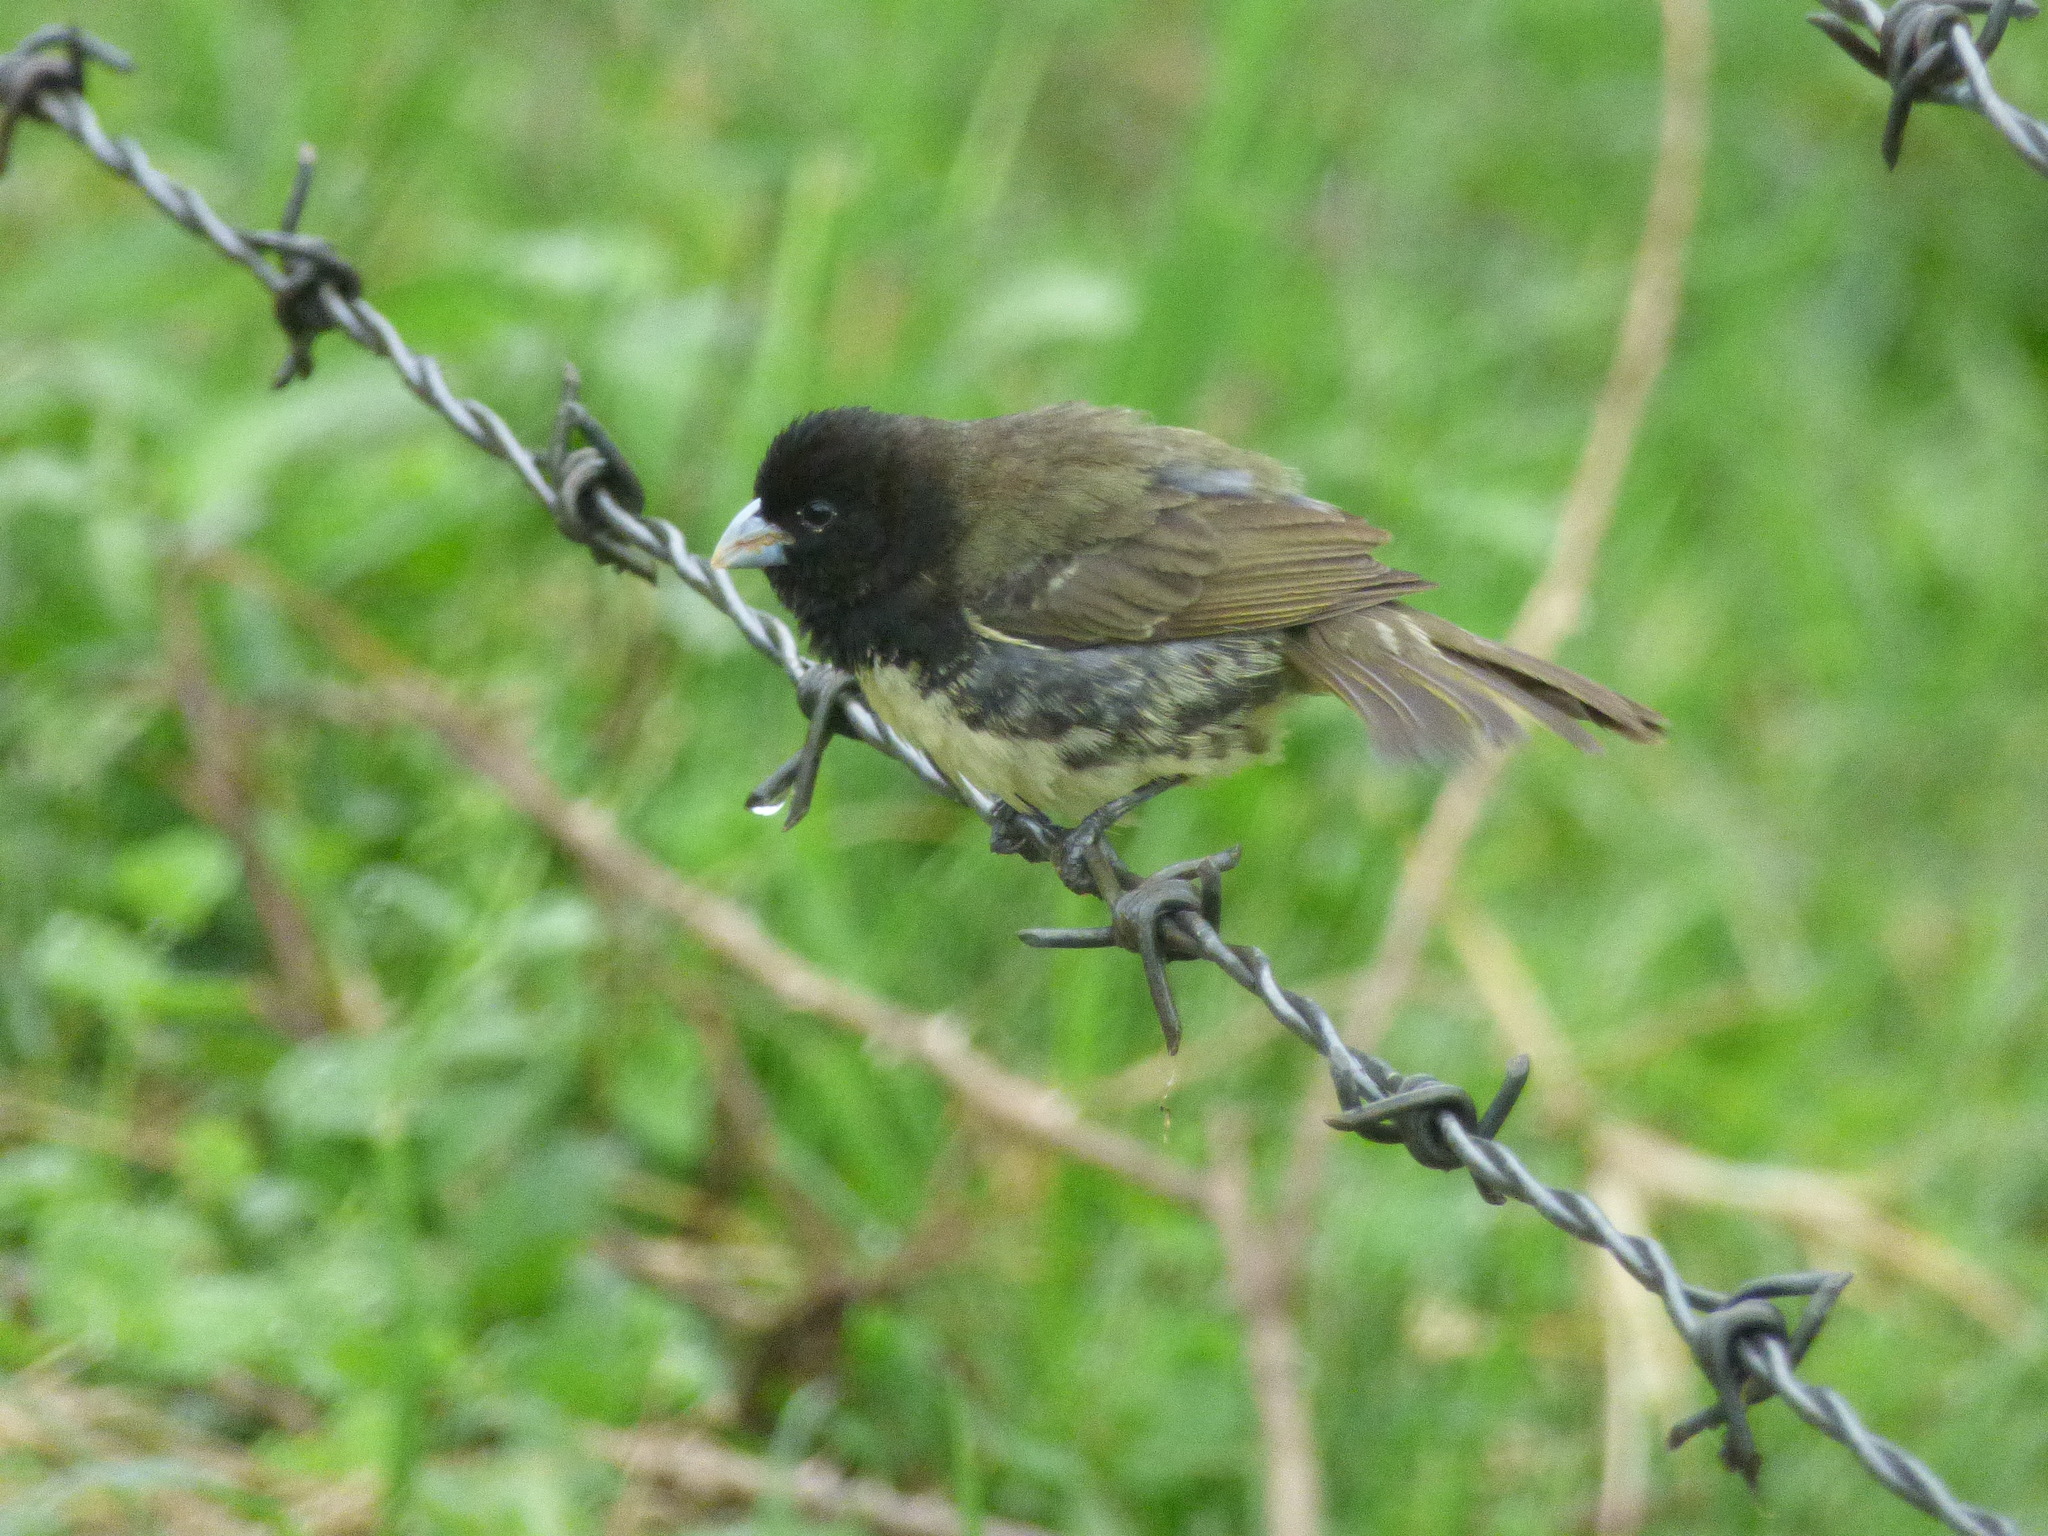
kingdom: Animalia
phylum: Chordata
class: Aves
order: Passeriformes
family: Thraupidae
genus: Sporophila
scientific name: Sporophila nigricollis
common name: Yellow-bellied seedeater
